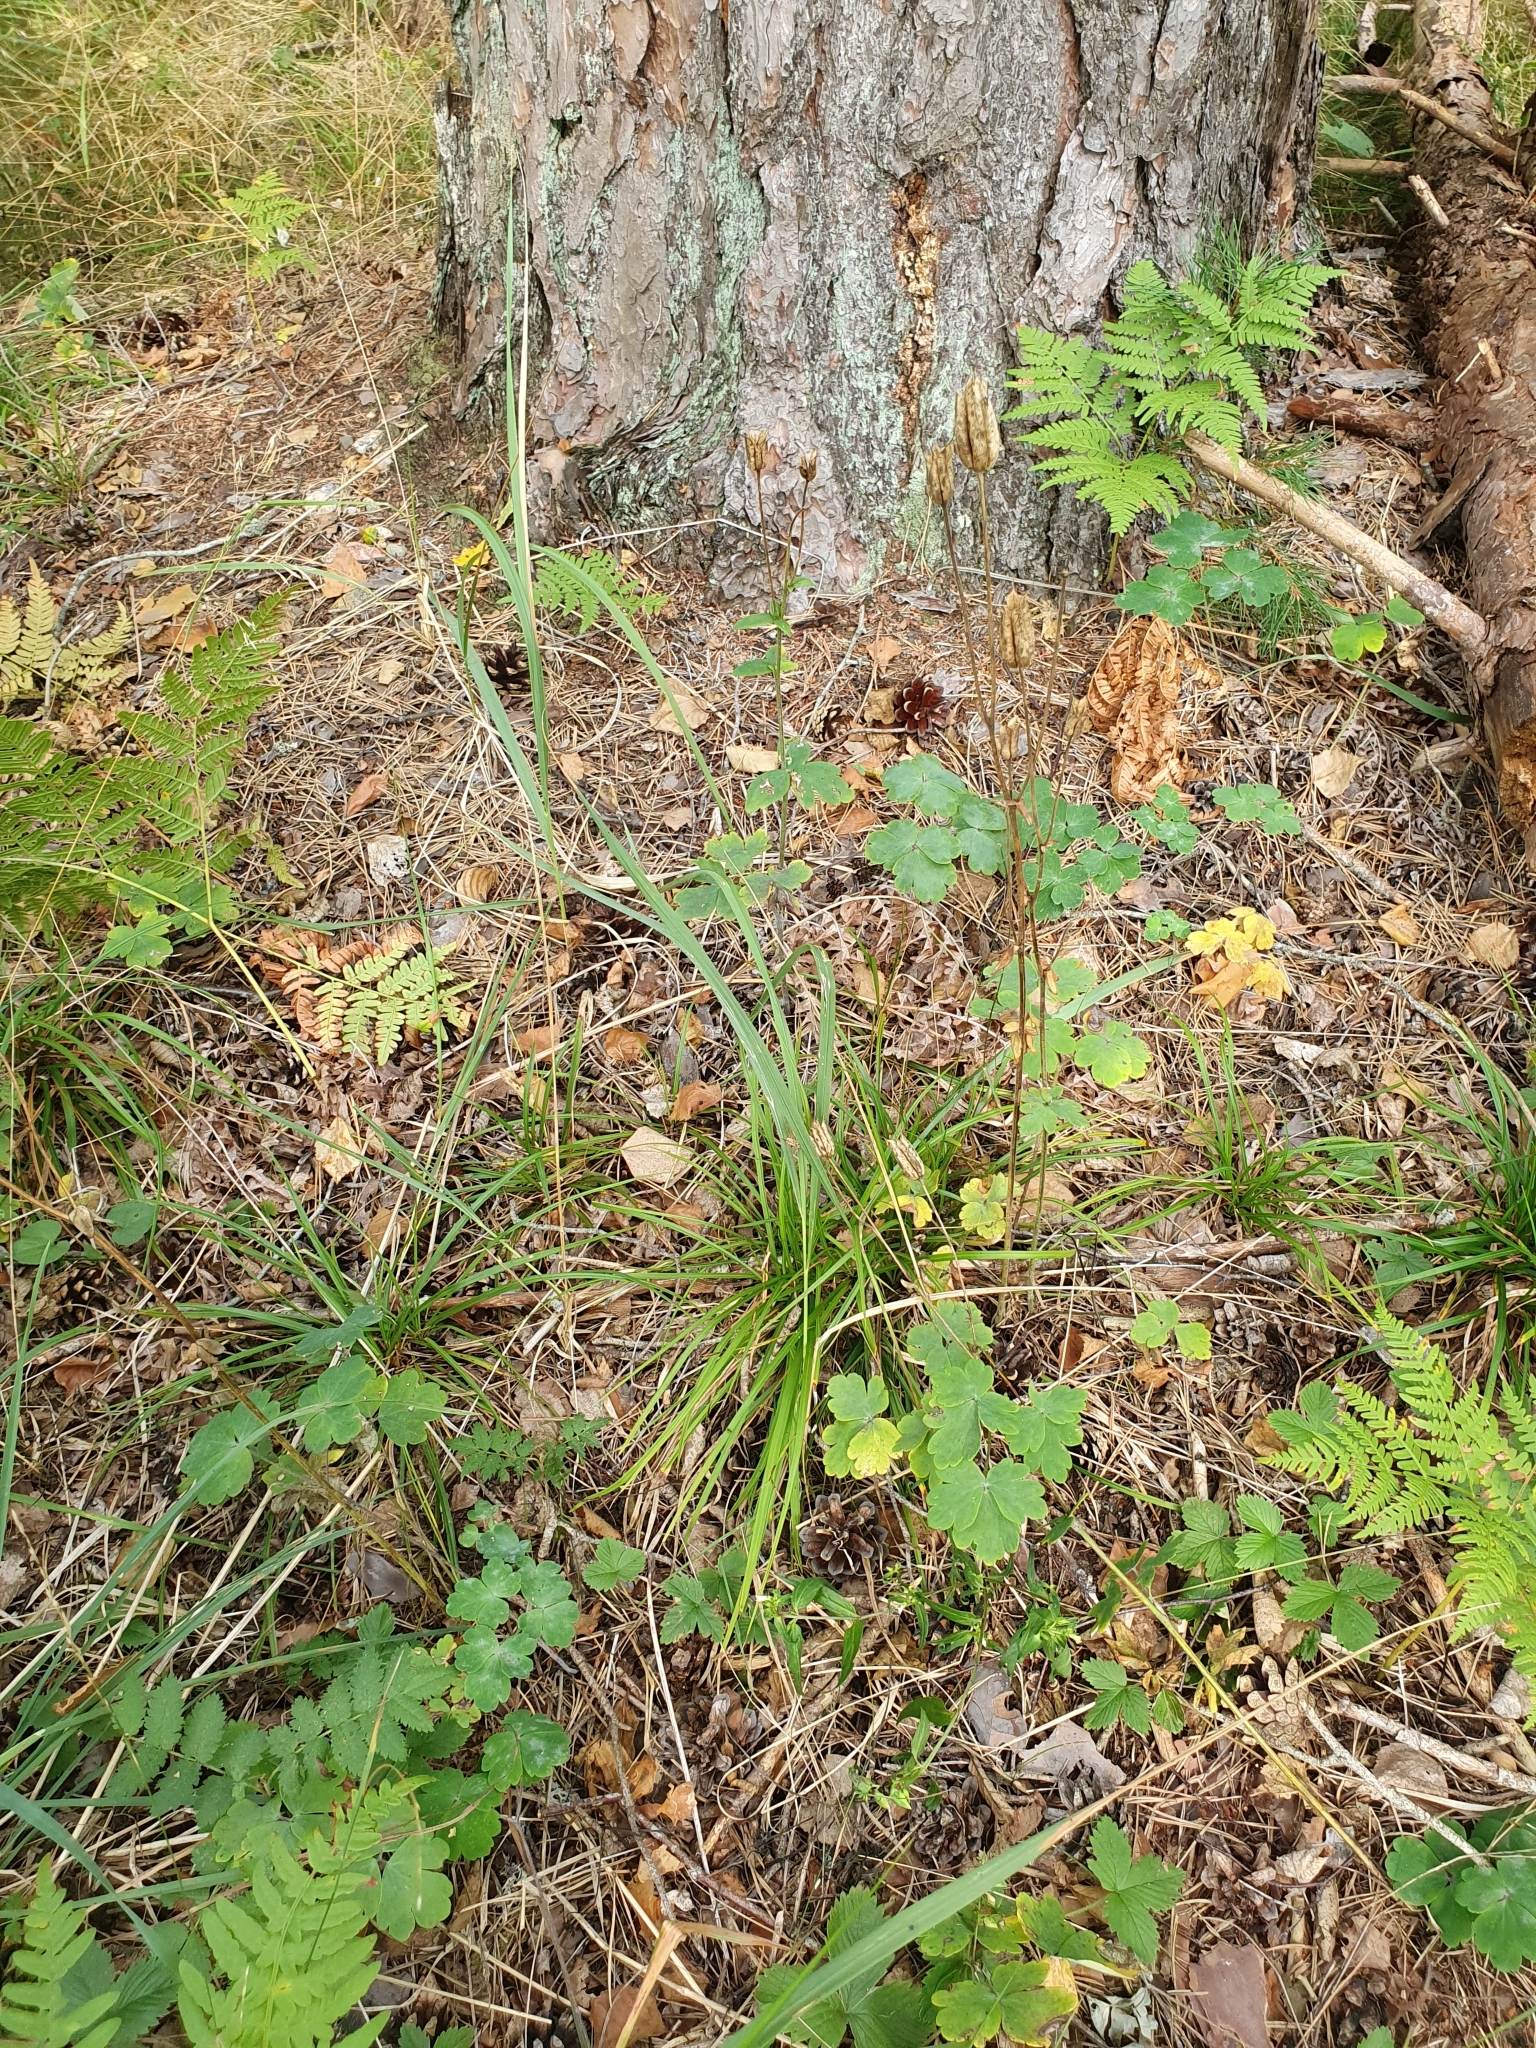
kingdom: Plantae
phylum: Tracheophyta
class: Magnoliopsida
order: Ranunculales
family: Ranunculaceae
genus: Aquilegia
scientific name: Aquilegia vulgaris
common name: Columbine
